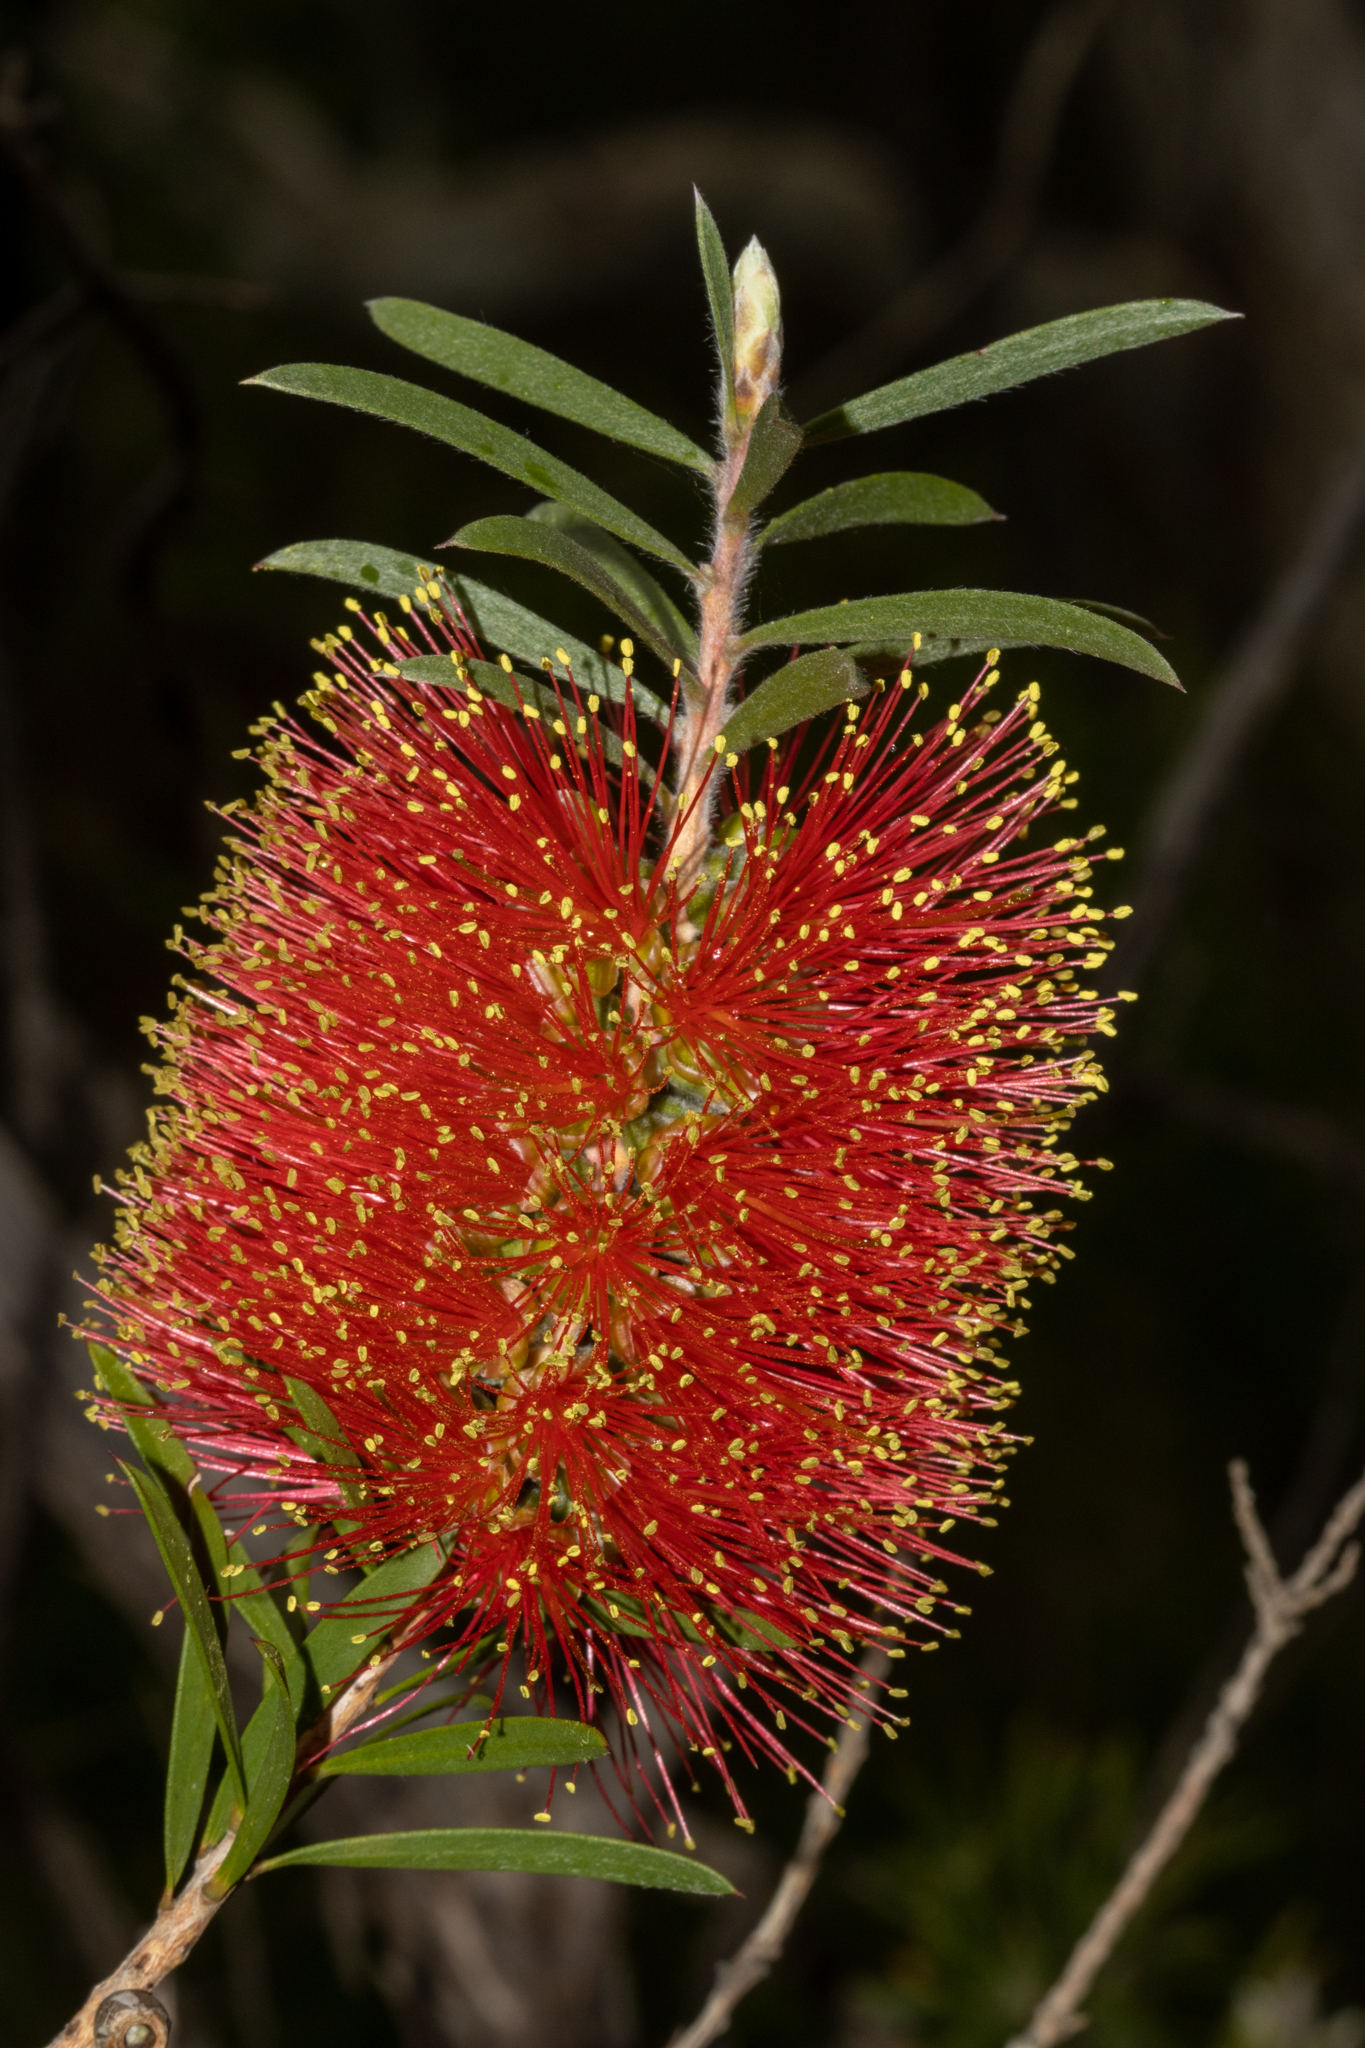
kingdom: Plantae
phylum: Tracheophyta
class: Magnoliopsida
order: Myrtales
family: Myrtaceae
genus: Callistemon
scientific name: Callistemon rugulosus
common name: Scarlet bottlebrush
